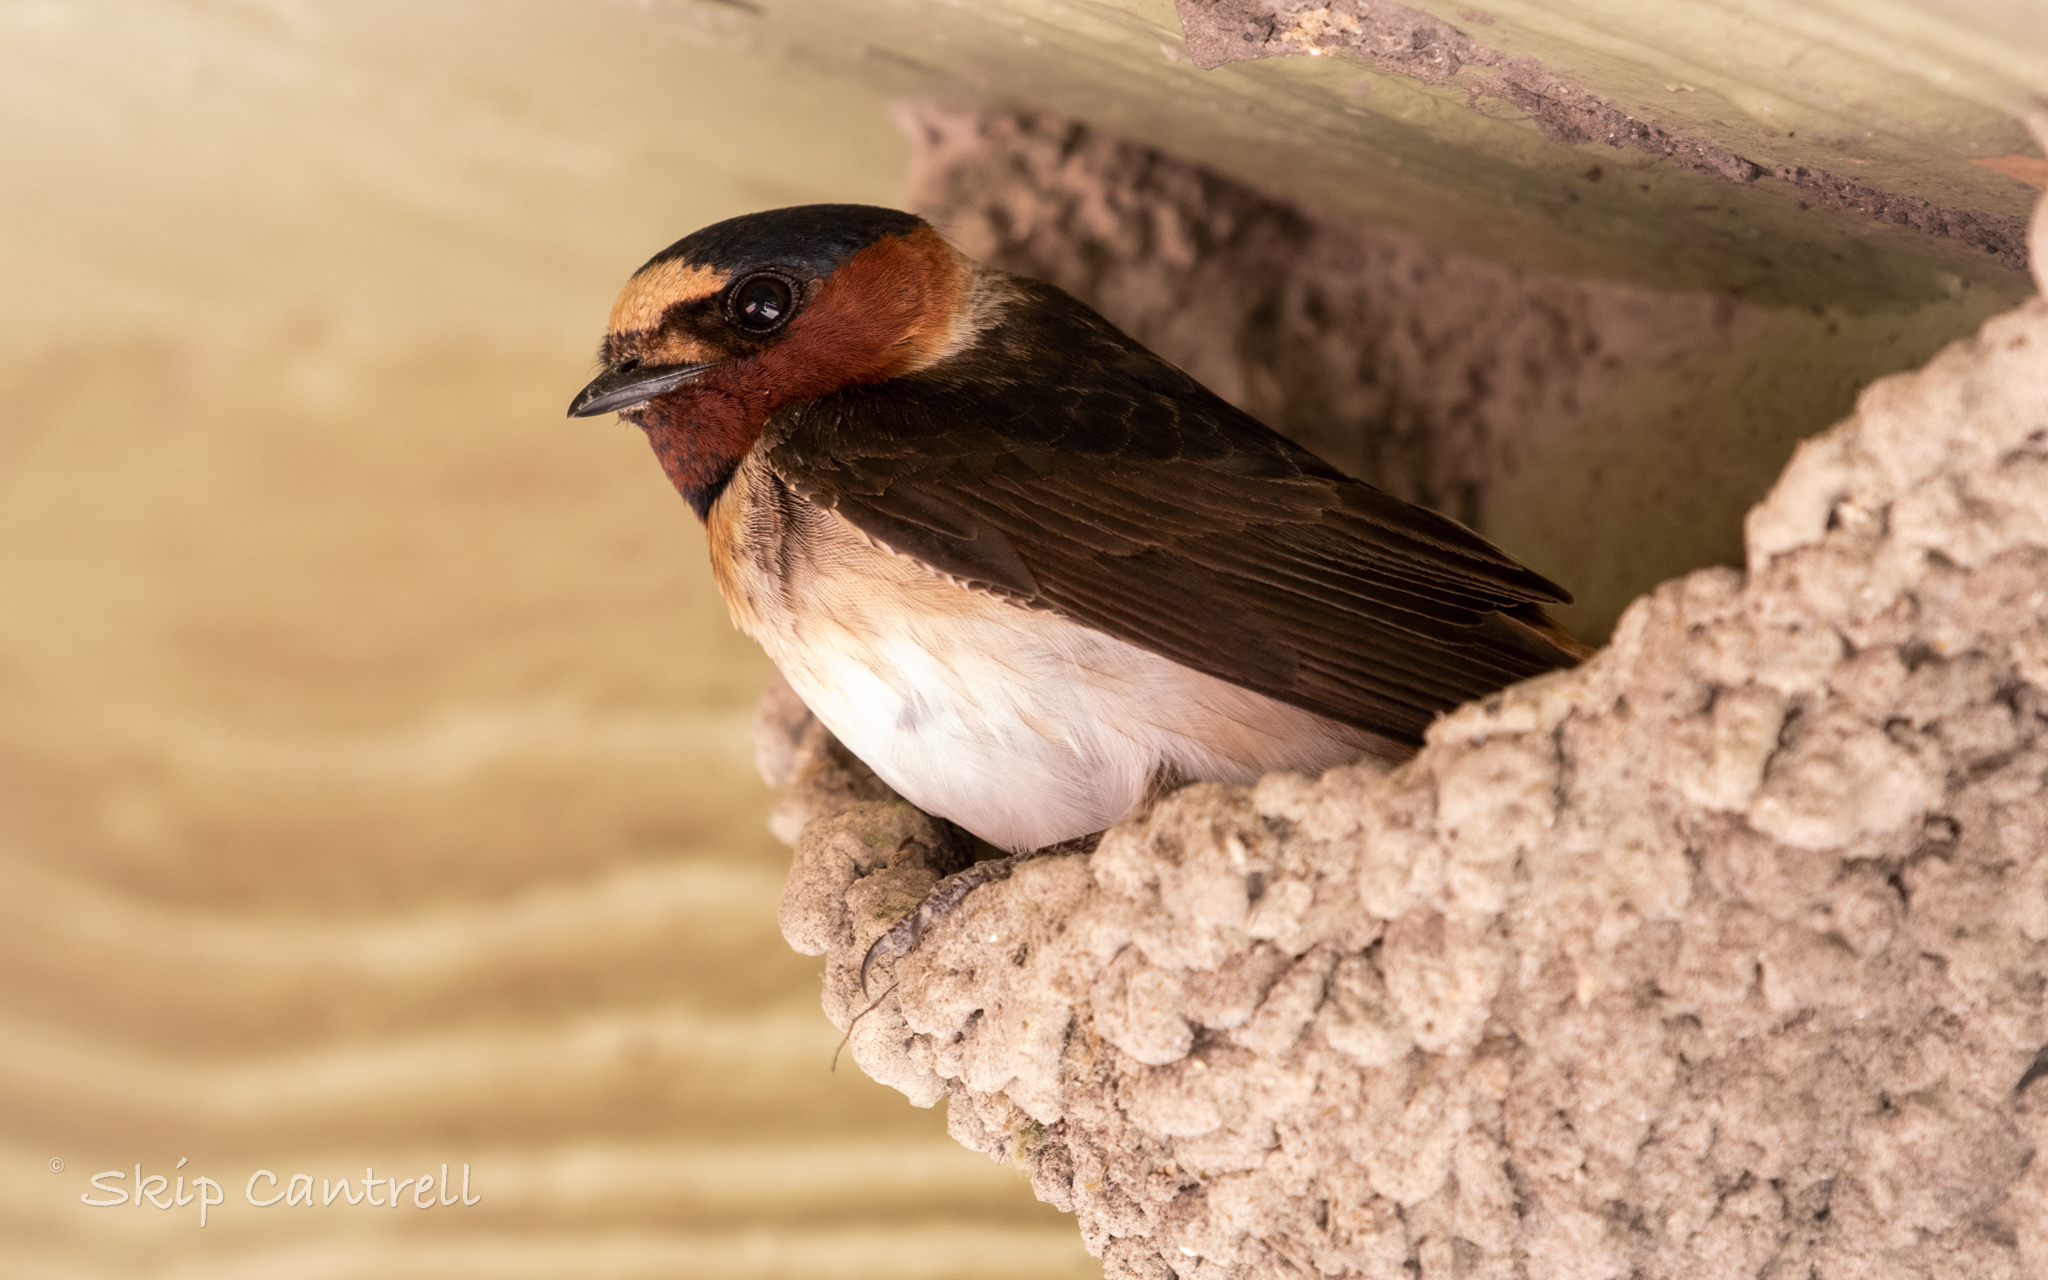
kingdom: Animalia
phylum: Chordata
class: Aves
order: Passeriformes
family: Hirundinidae
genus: Petrochelidon
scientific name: Petrochelidon pyrrhonota
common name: American cliff swallow
